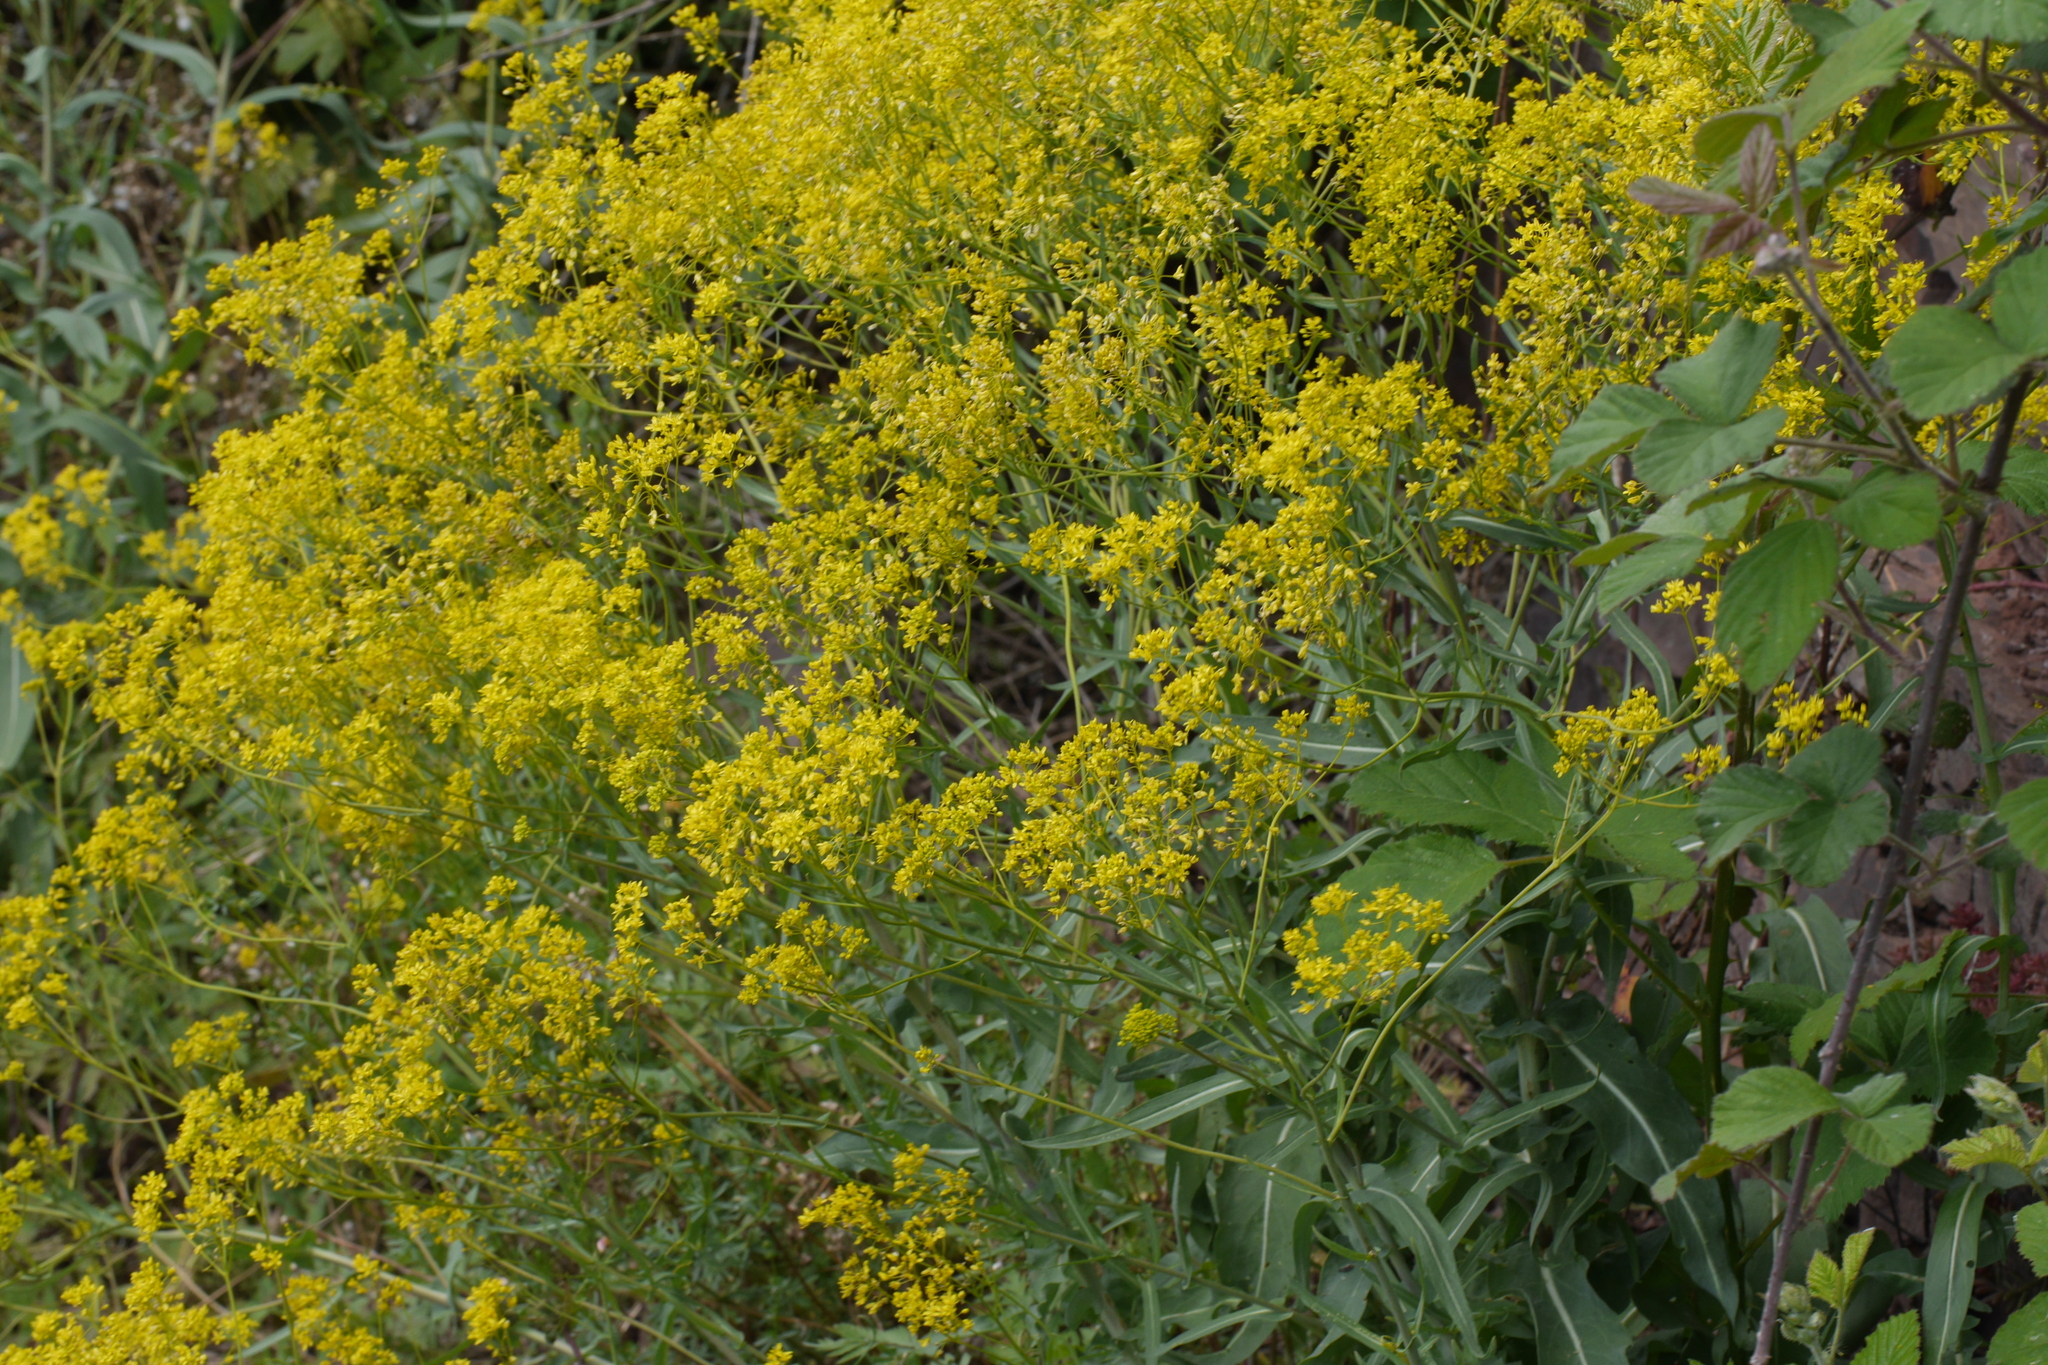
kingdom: Plantae
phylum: Tracheophyta
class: Magnoliopsida
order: Brassicales
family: Brassicaceae
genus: Isatis
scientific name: Isatis tinctoria
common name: Woad
